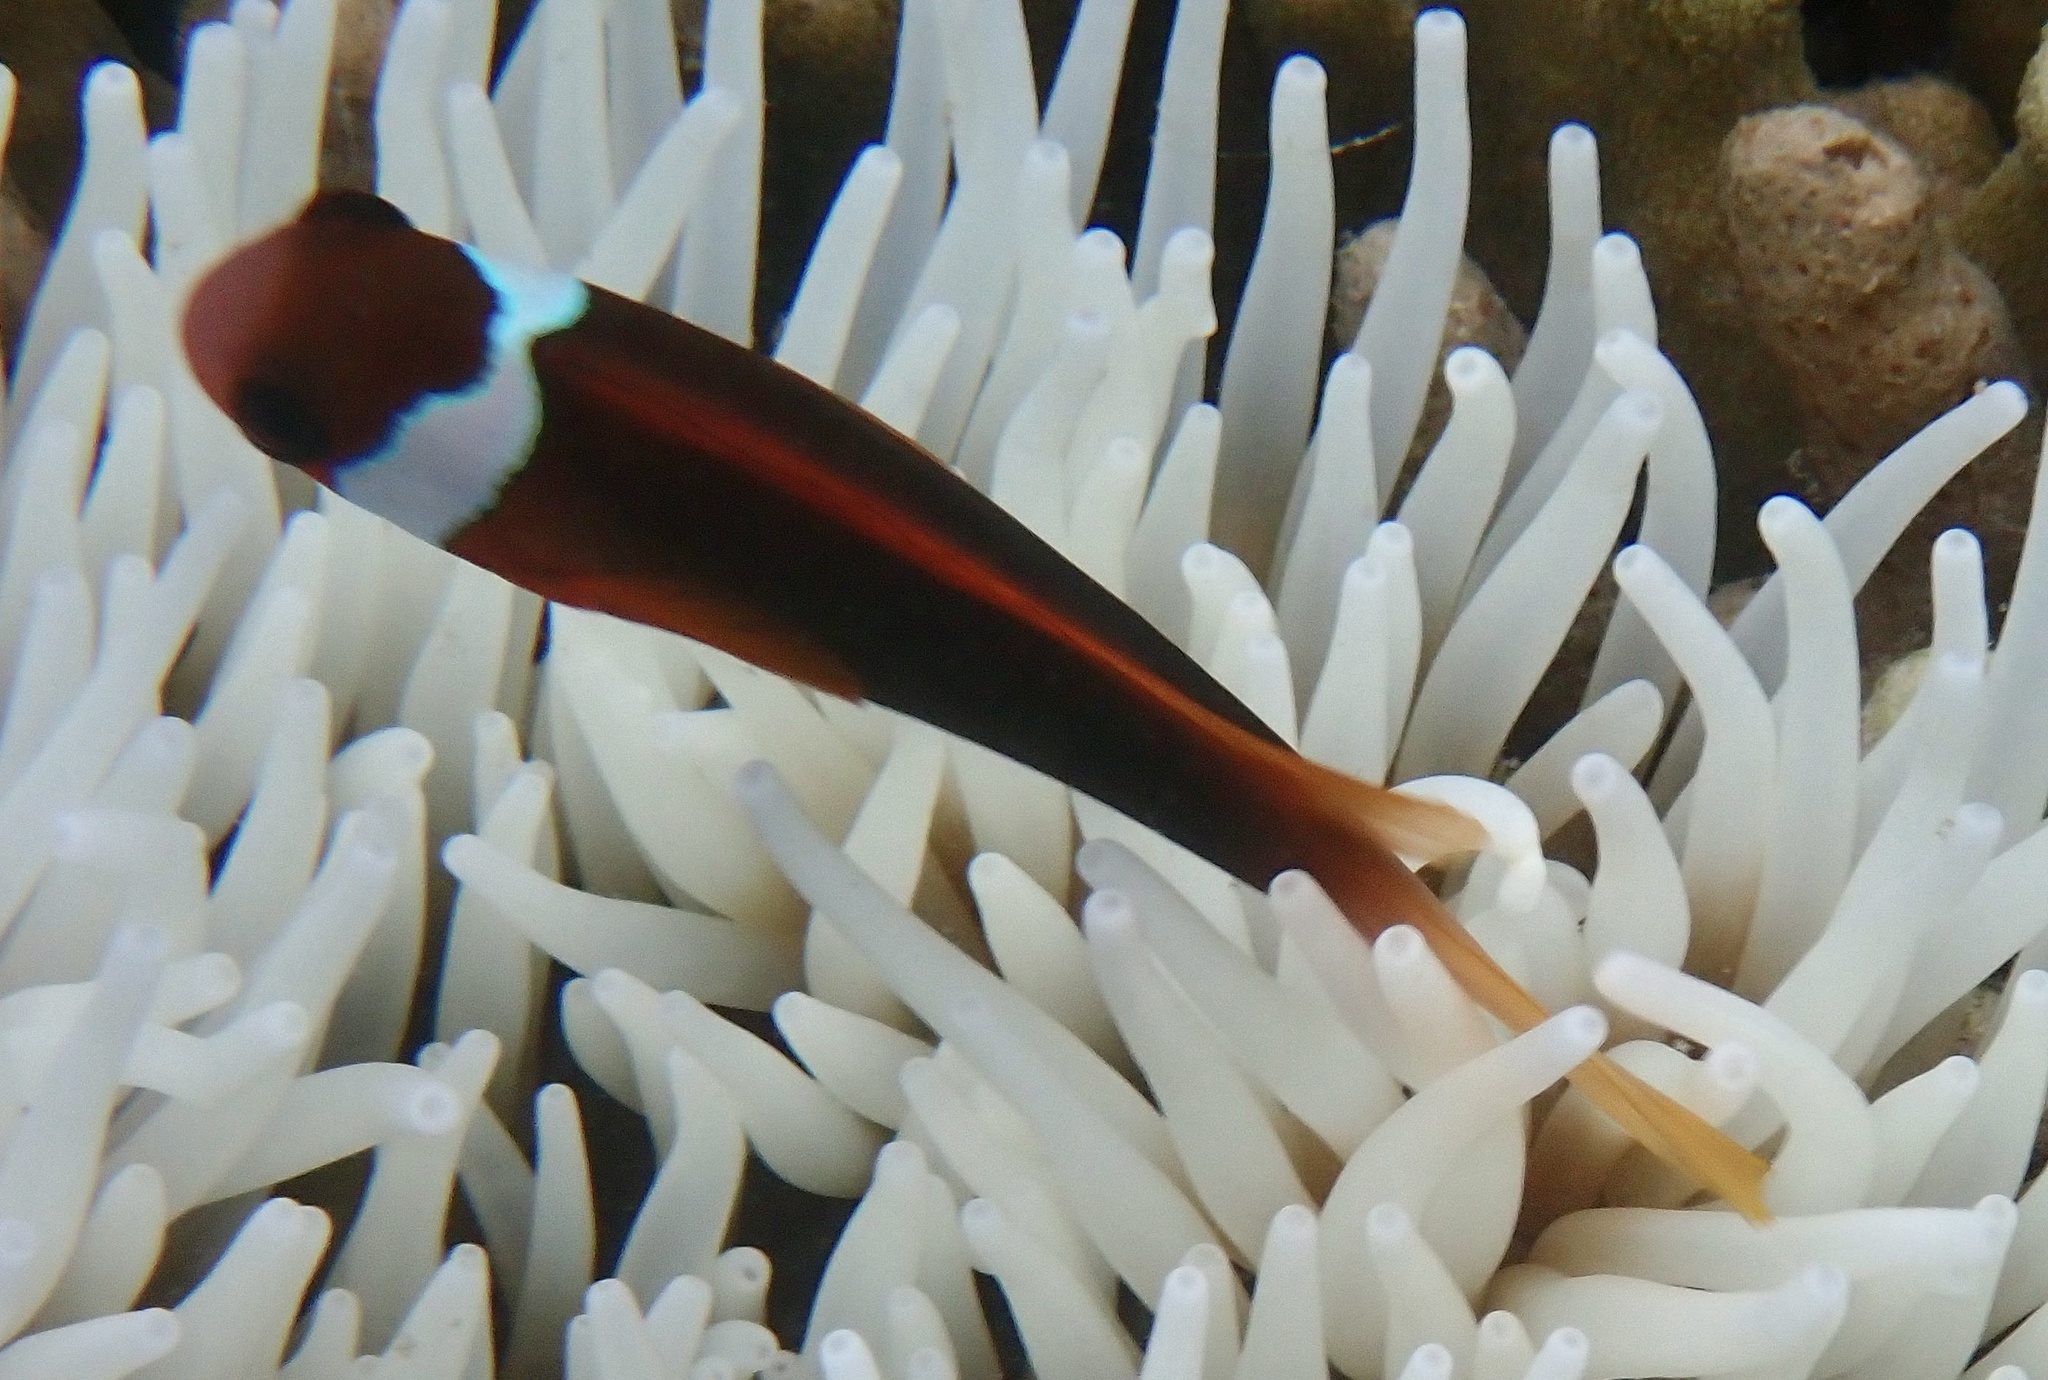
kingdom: Animalia
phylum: Chordata
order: Perciformes
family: Pomacentridae
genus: Amphiprion
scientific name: Amphiprion melanopus
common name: Black anemonefish
